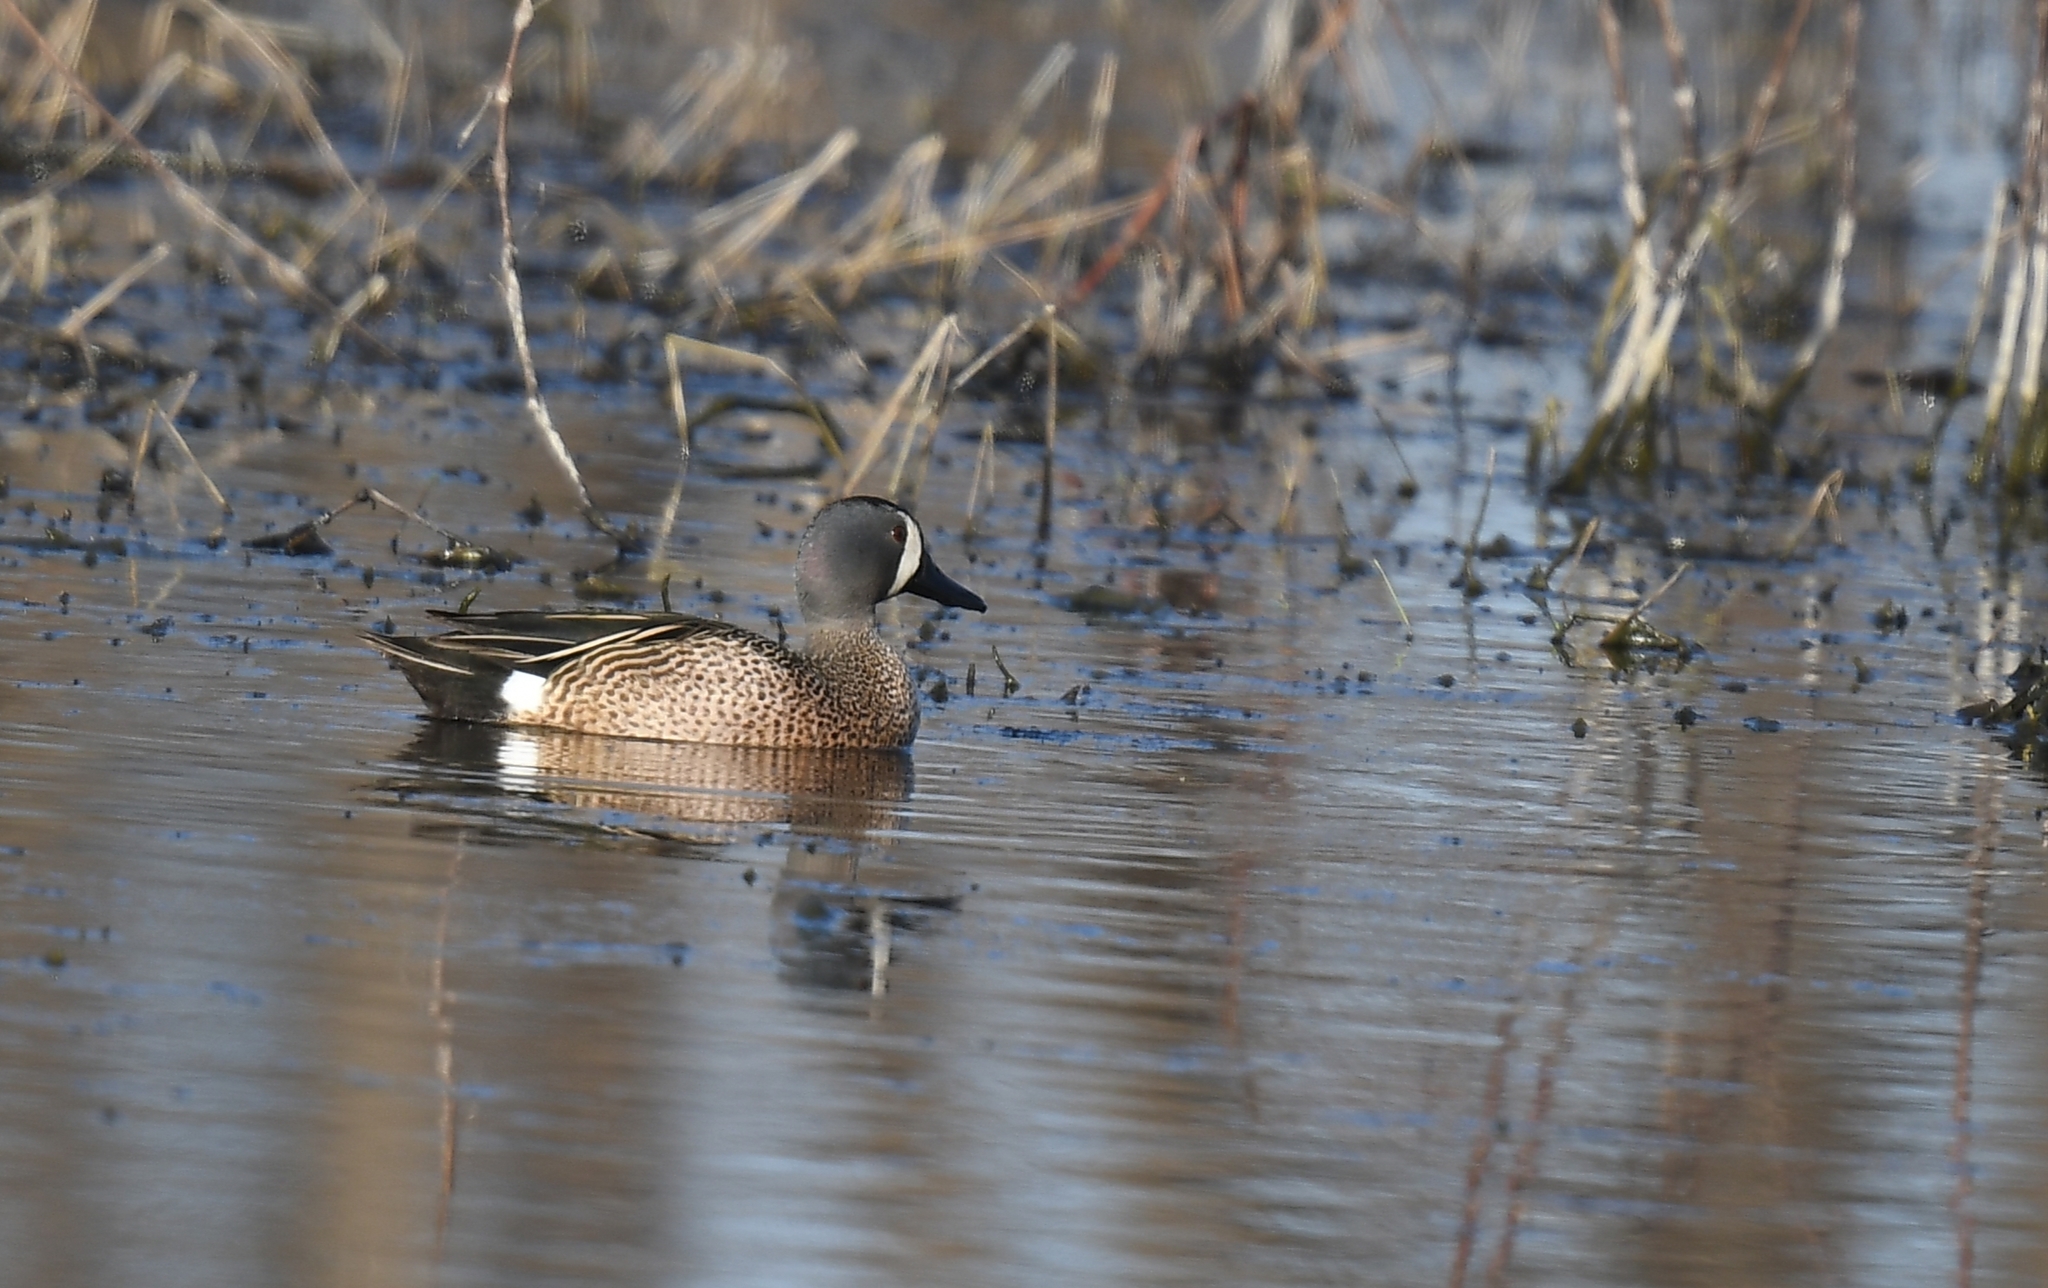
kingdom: Animalia
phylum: Chordata
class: Aves
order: Anseriformes
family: Anatidae
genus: Spatula
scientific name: Spatula discors
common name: Blue-winged teal
